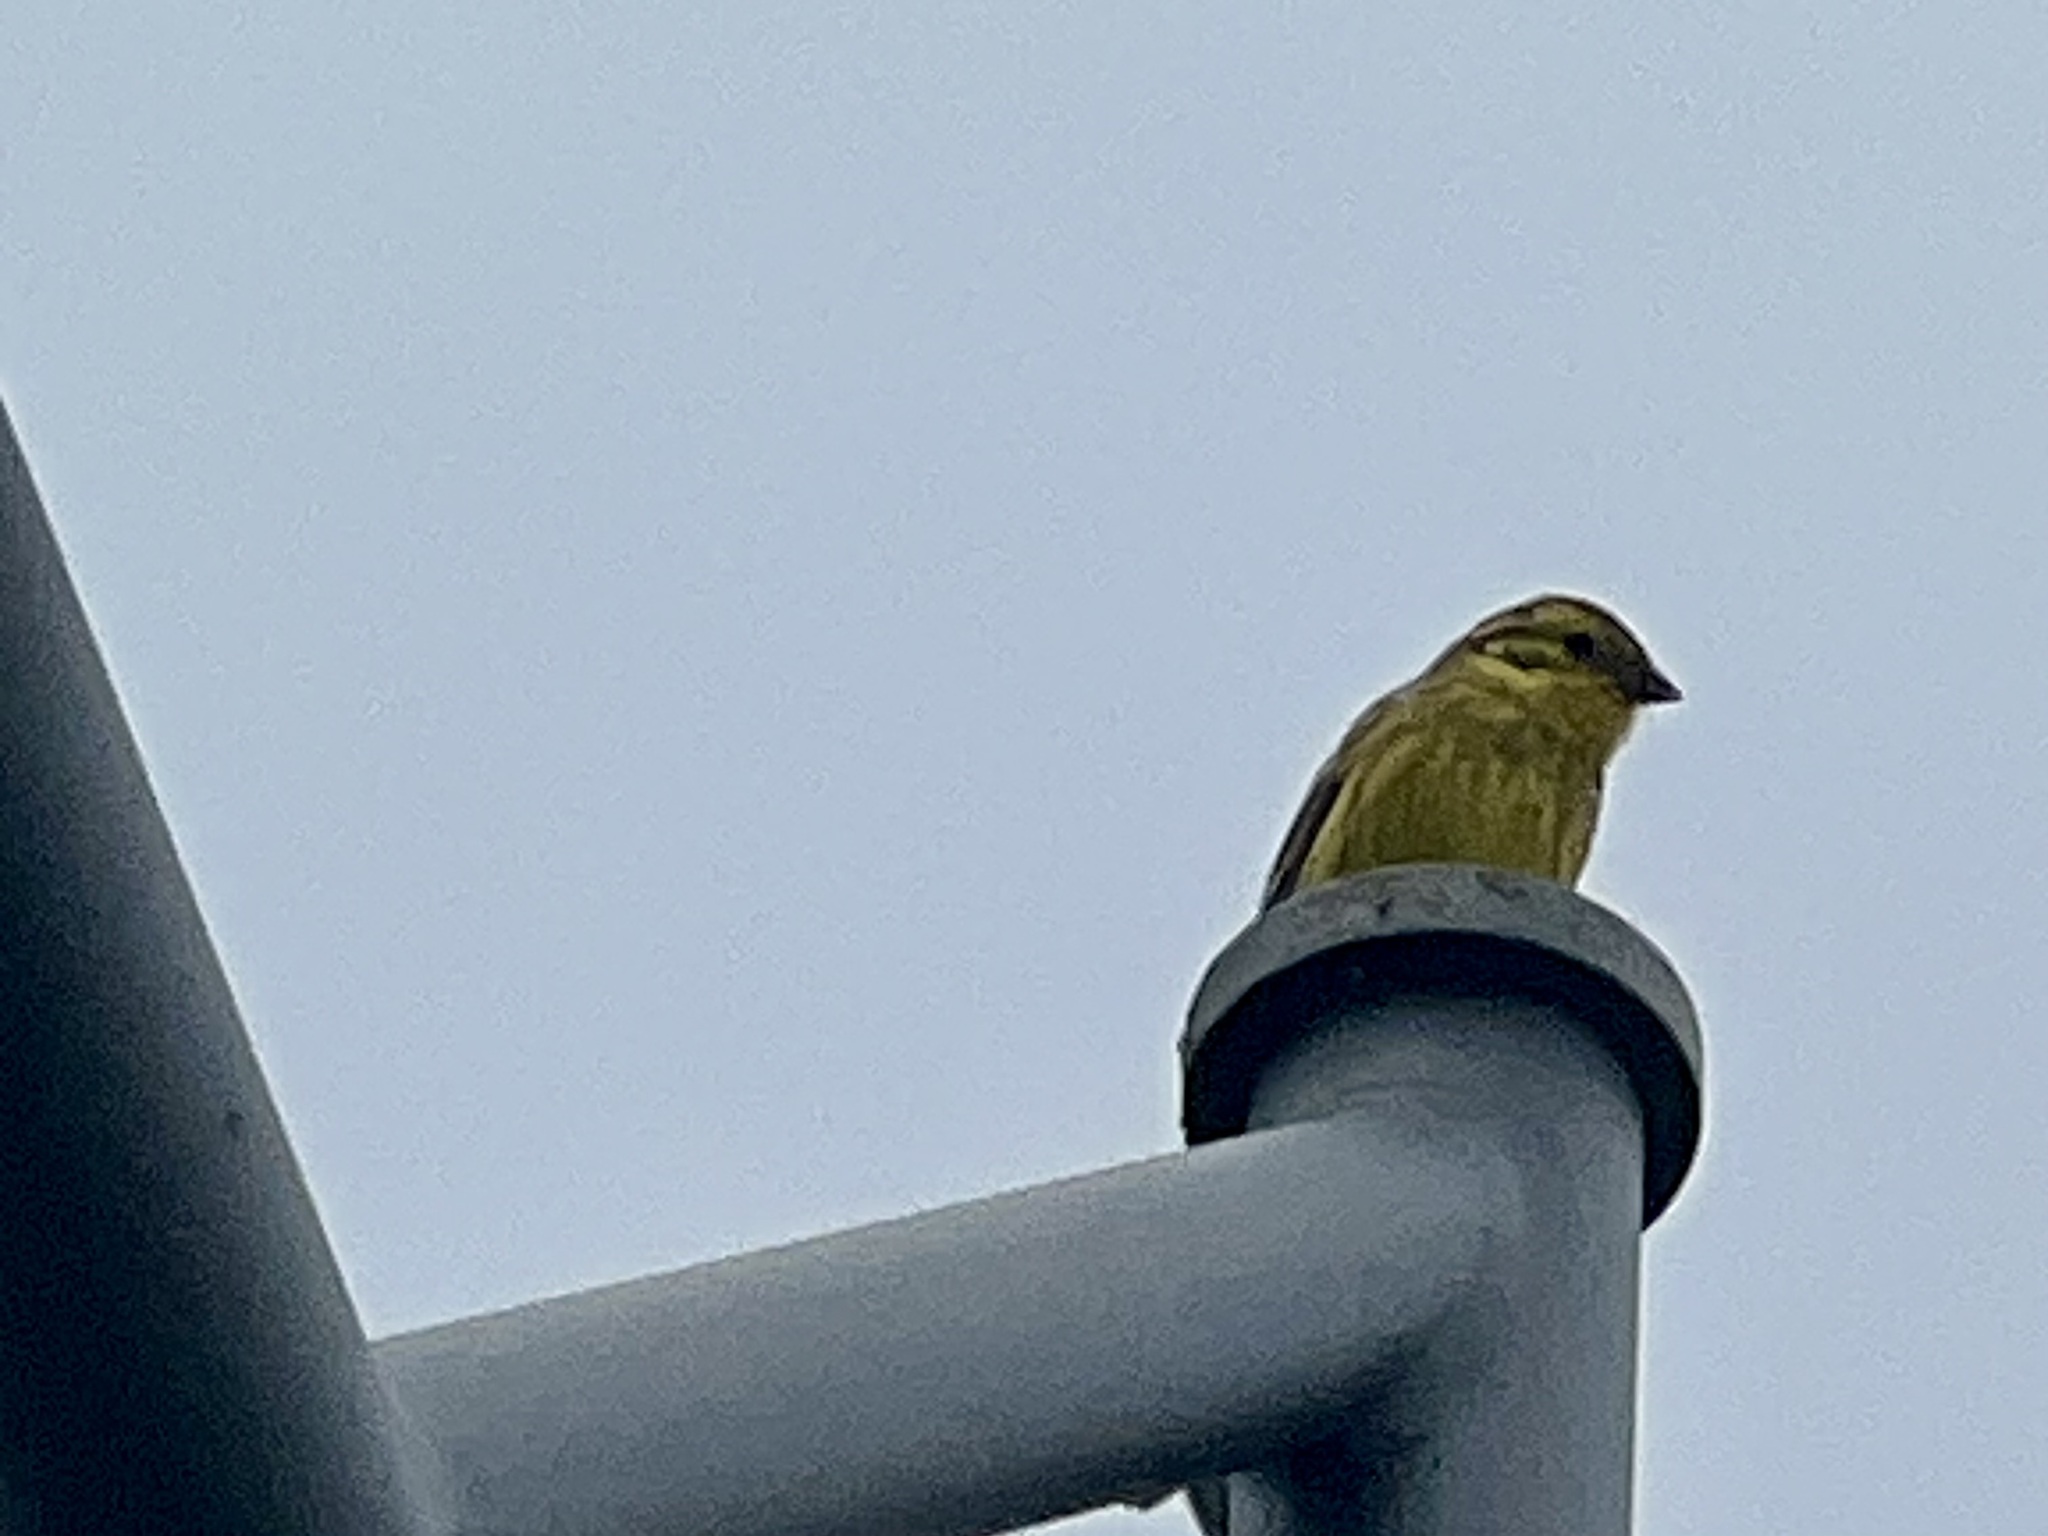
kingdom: Animalia
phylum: Chordata
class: Aves
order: Passeriformes
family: Emberizidae
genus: Emberiza
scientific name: Emberiza citrinella
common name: Yellowhammer
